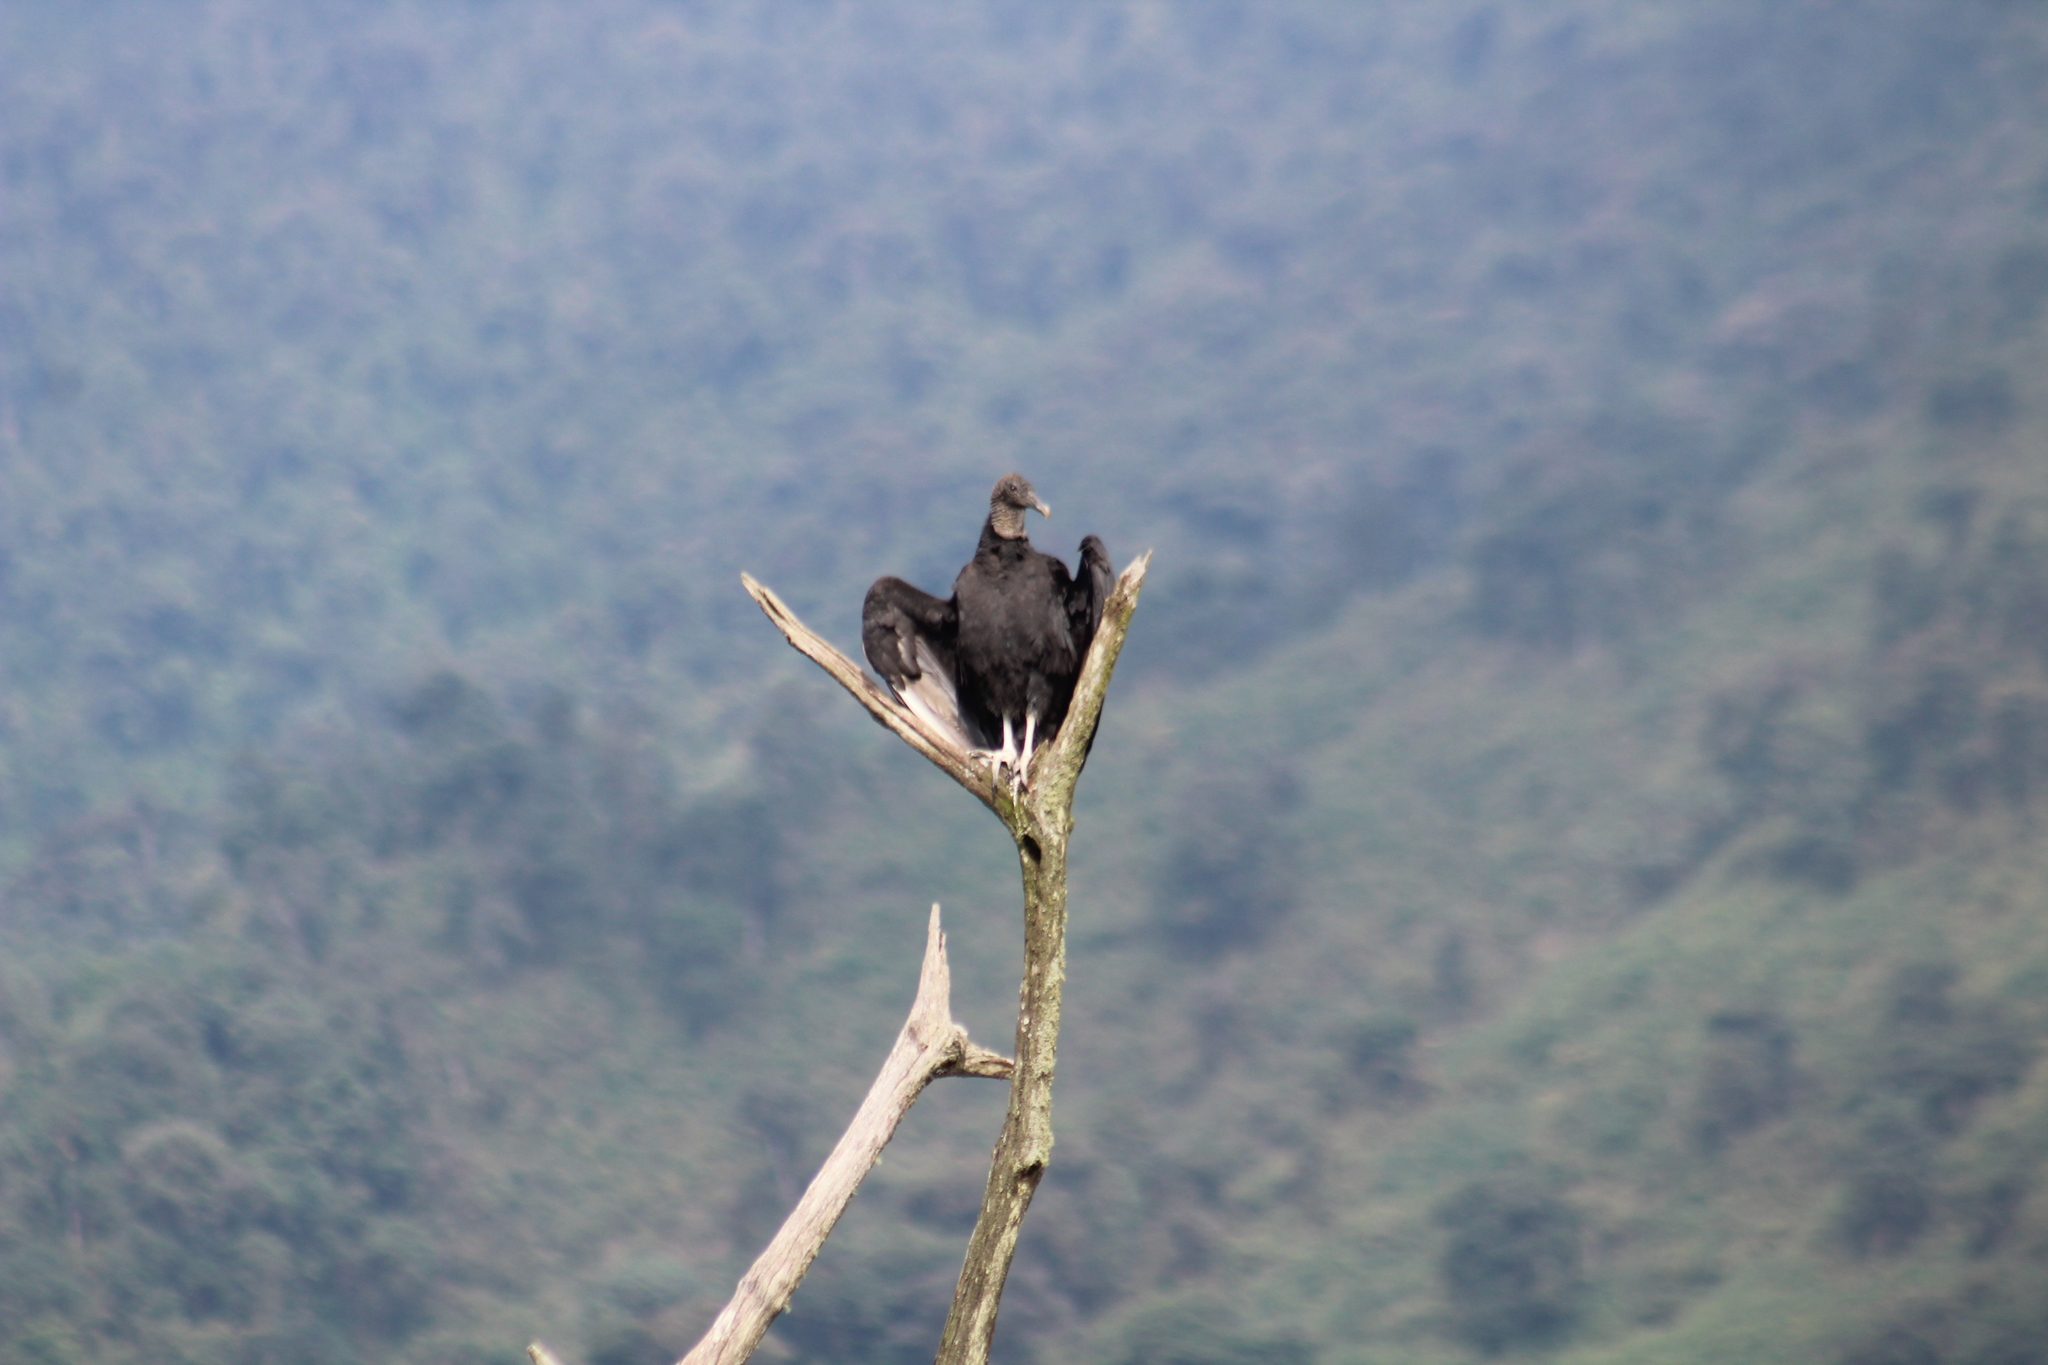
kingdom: Animalia
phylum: Chordata
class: Aves
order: Accipitriformes
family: Cathartidae
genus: Coragyps
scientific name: Coragyps atratus
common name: Black vulture
